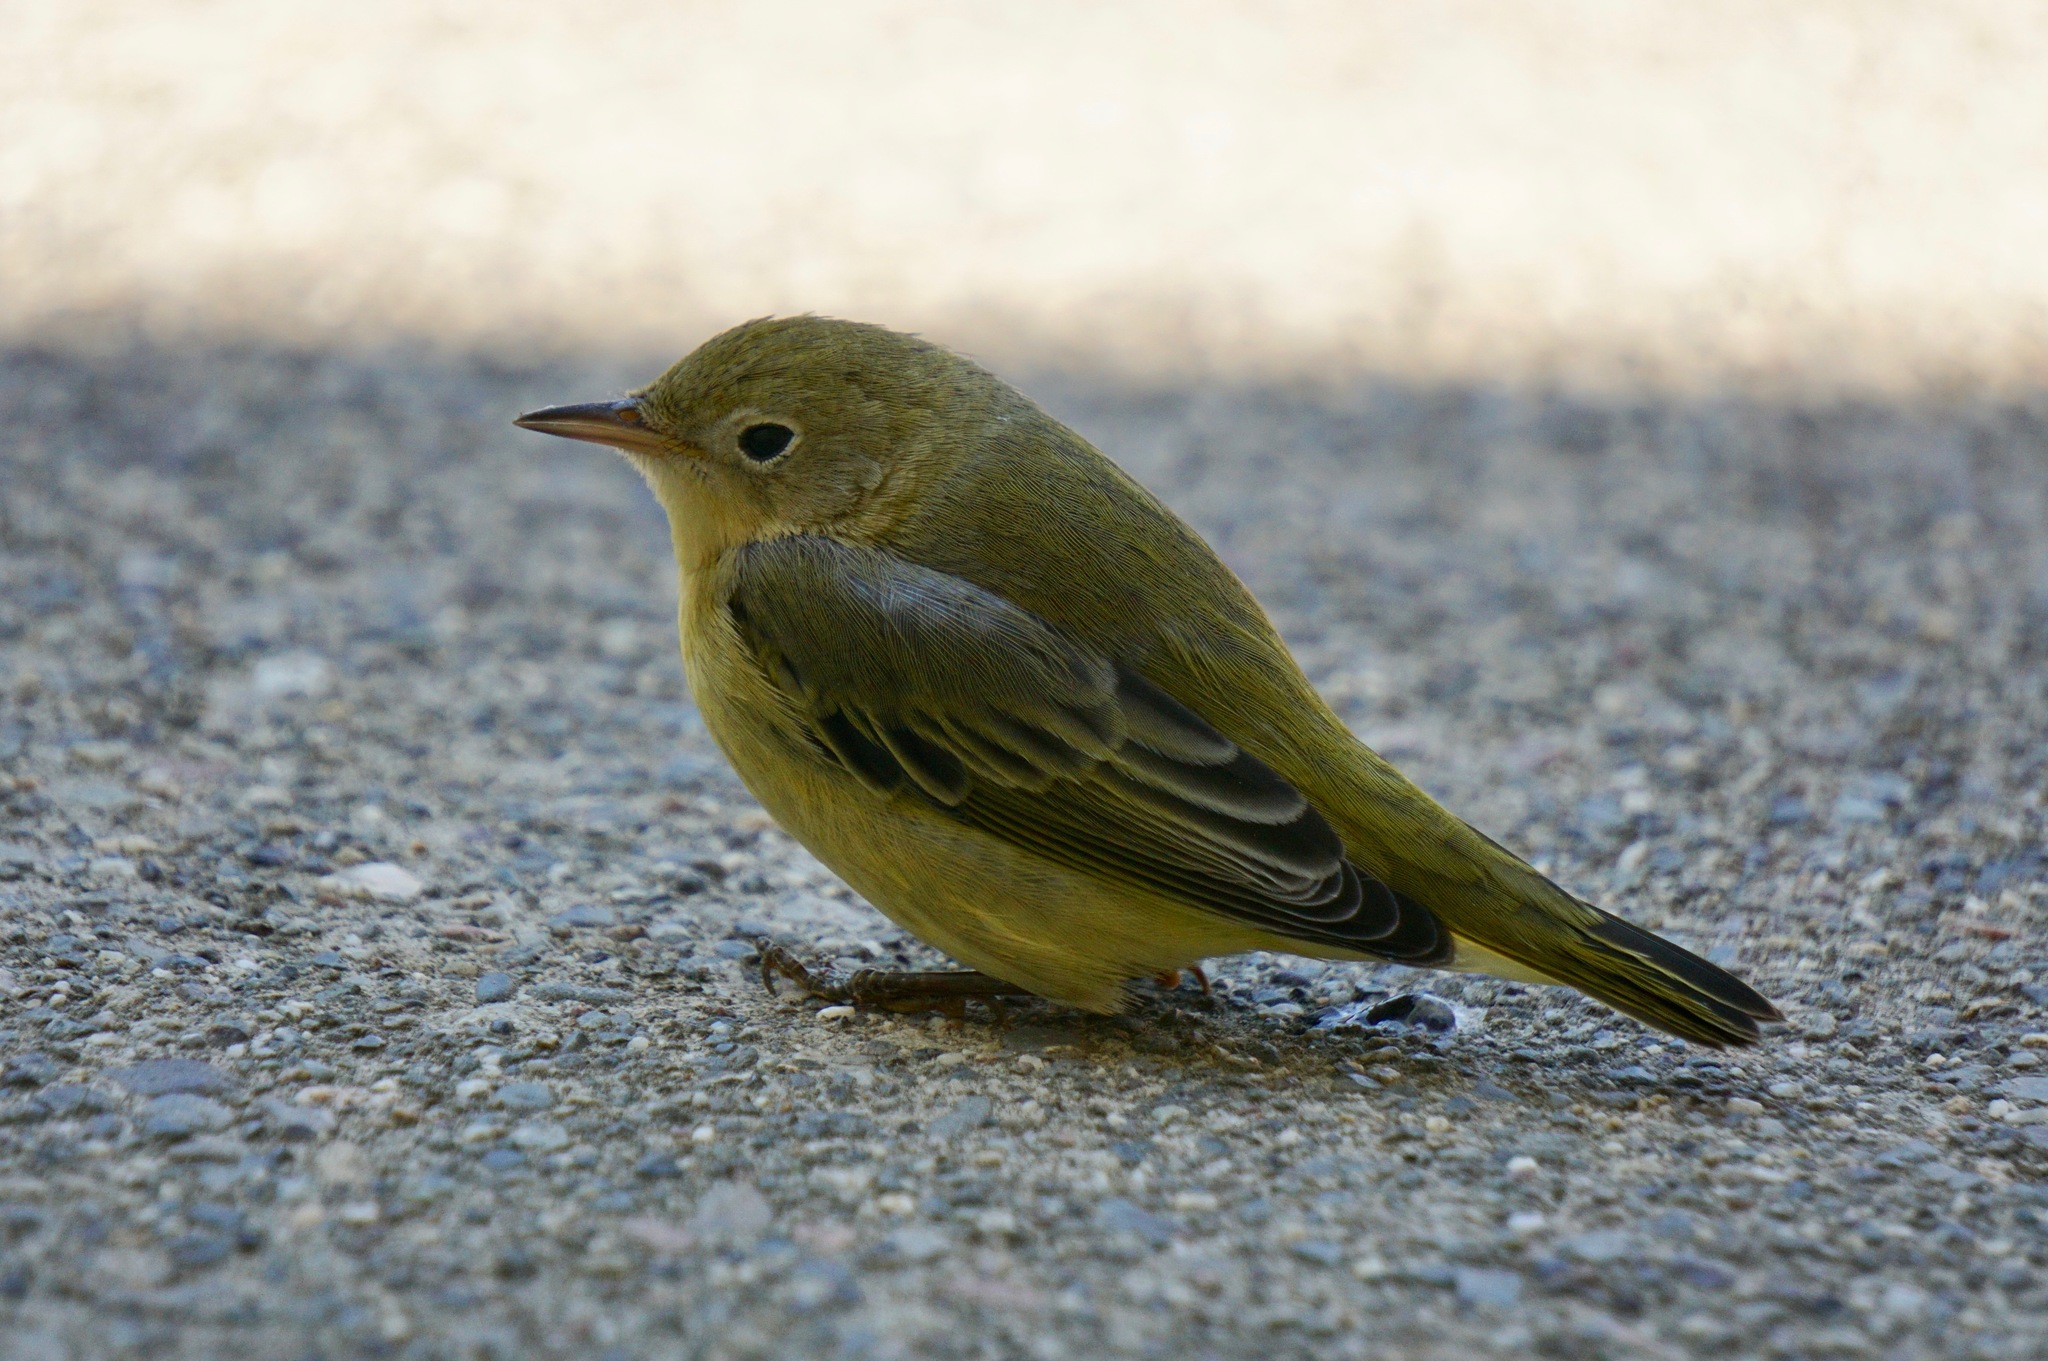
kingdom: Animalia
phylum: Chordata
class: Aves
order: Passeriformes
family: Parulidae
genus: Setophaga
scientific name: Setophaga petechia
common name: Yellow warbler
